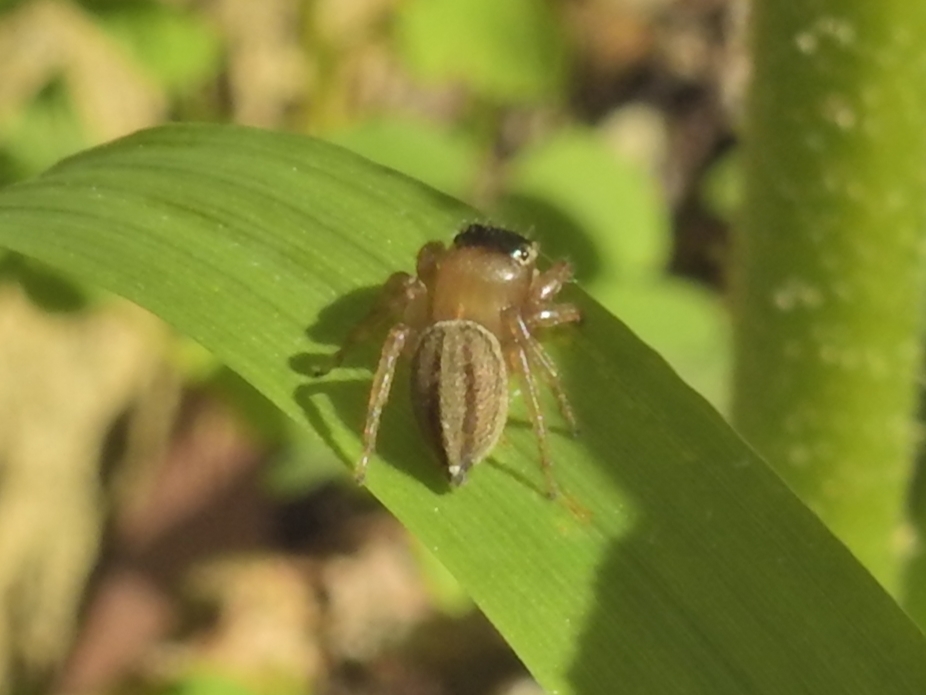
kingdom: Animalia
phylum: Arthropoda
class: Arachnida
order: Araneae
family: Salticidae
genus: Maratus
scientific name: Maratus scutulatus
